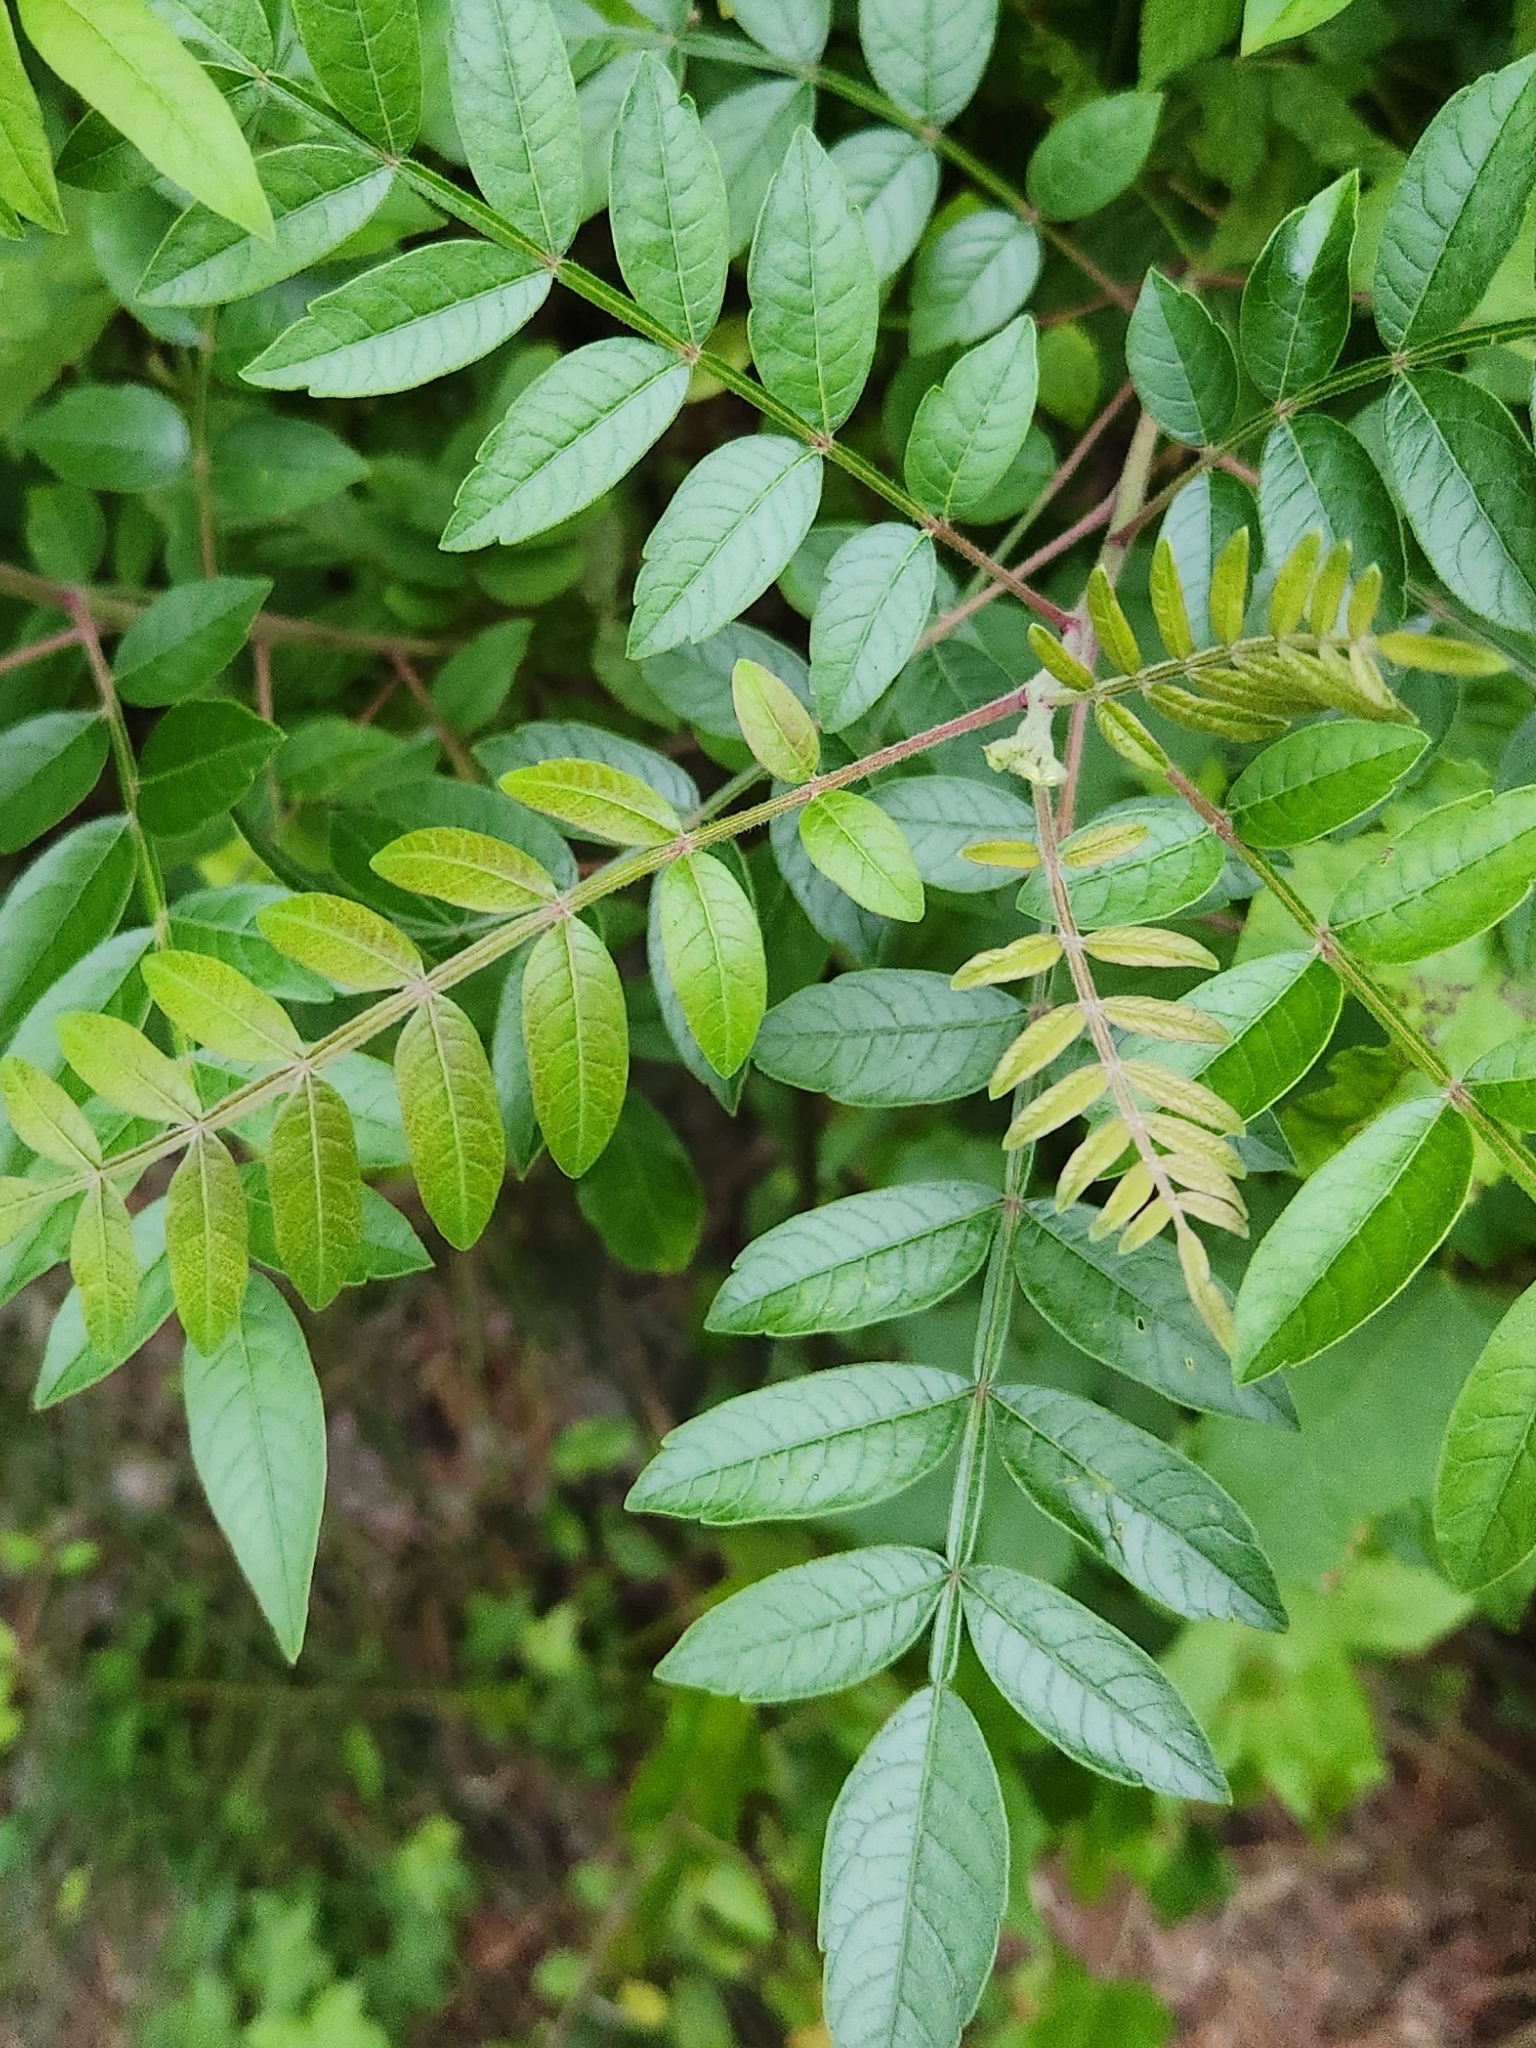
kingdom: Plantae
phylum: Tracheophyta
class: Magnoliopsida
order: Sapindales
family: Anacardiaceae
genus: Rhus
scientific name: Rhus copallina
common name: Shining sumac
